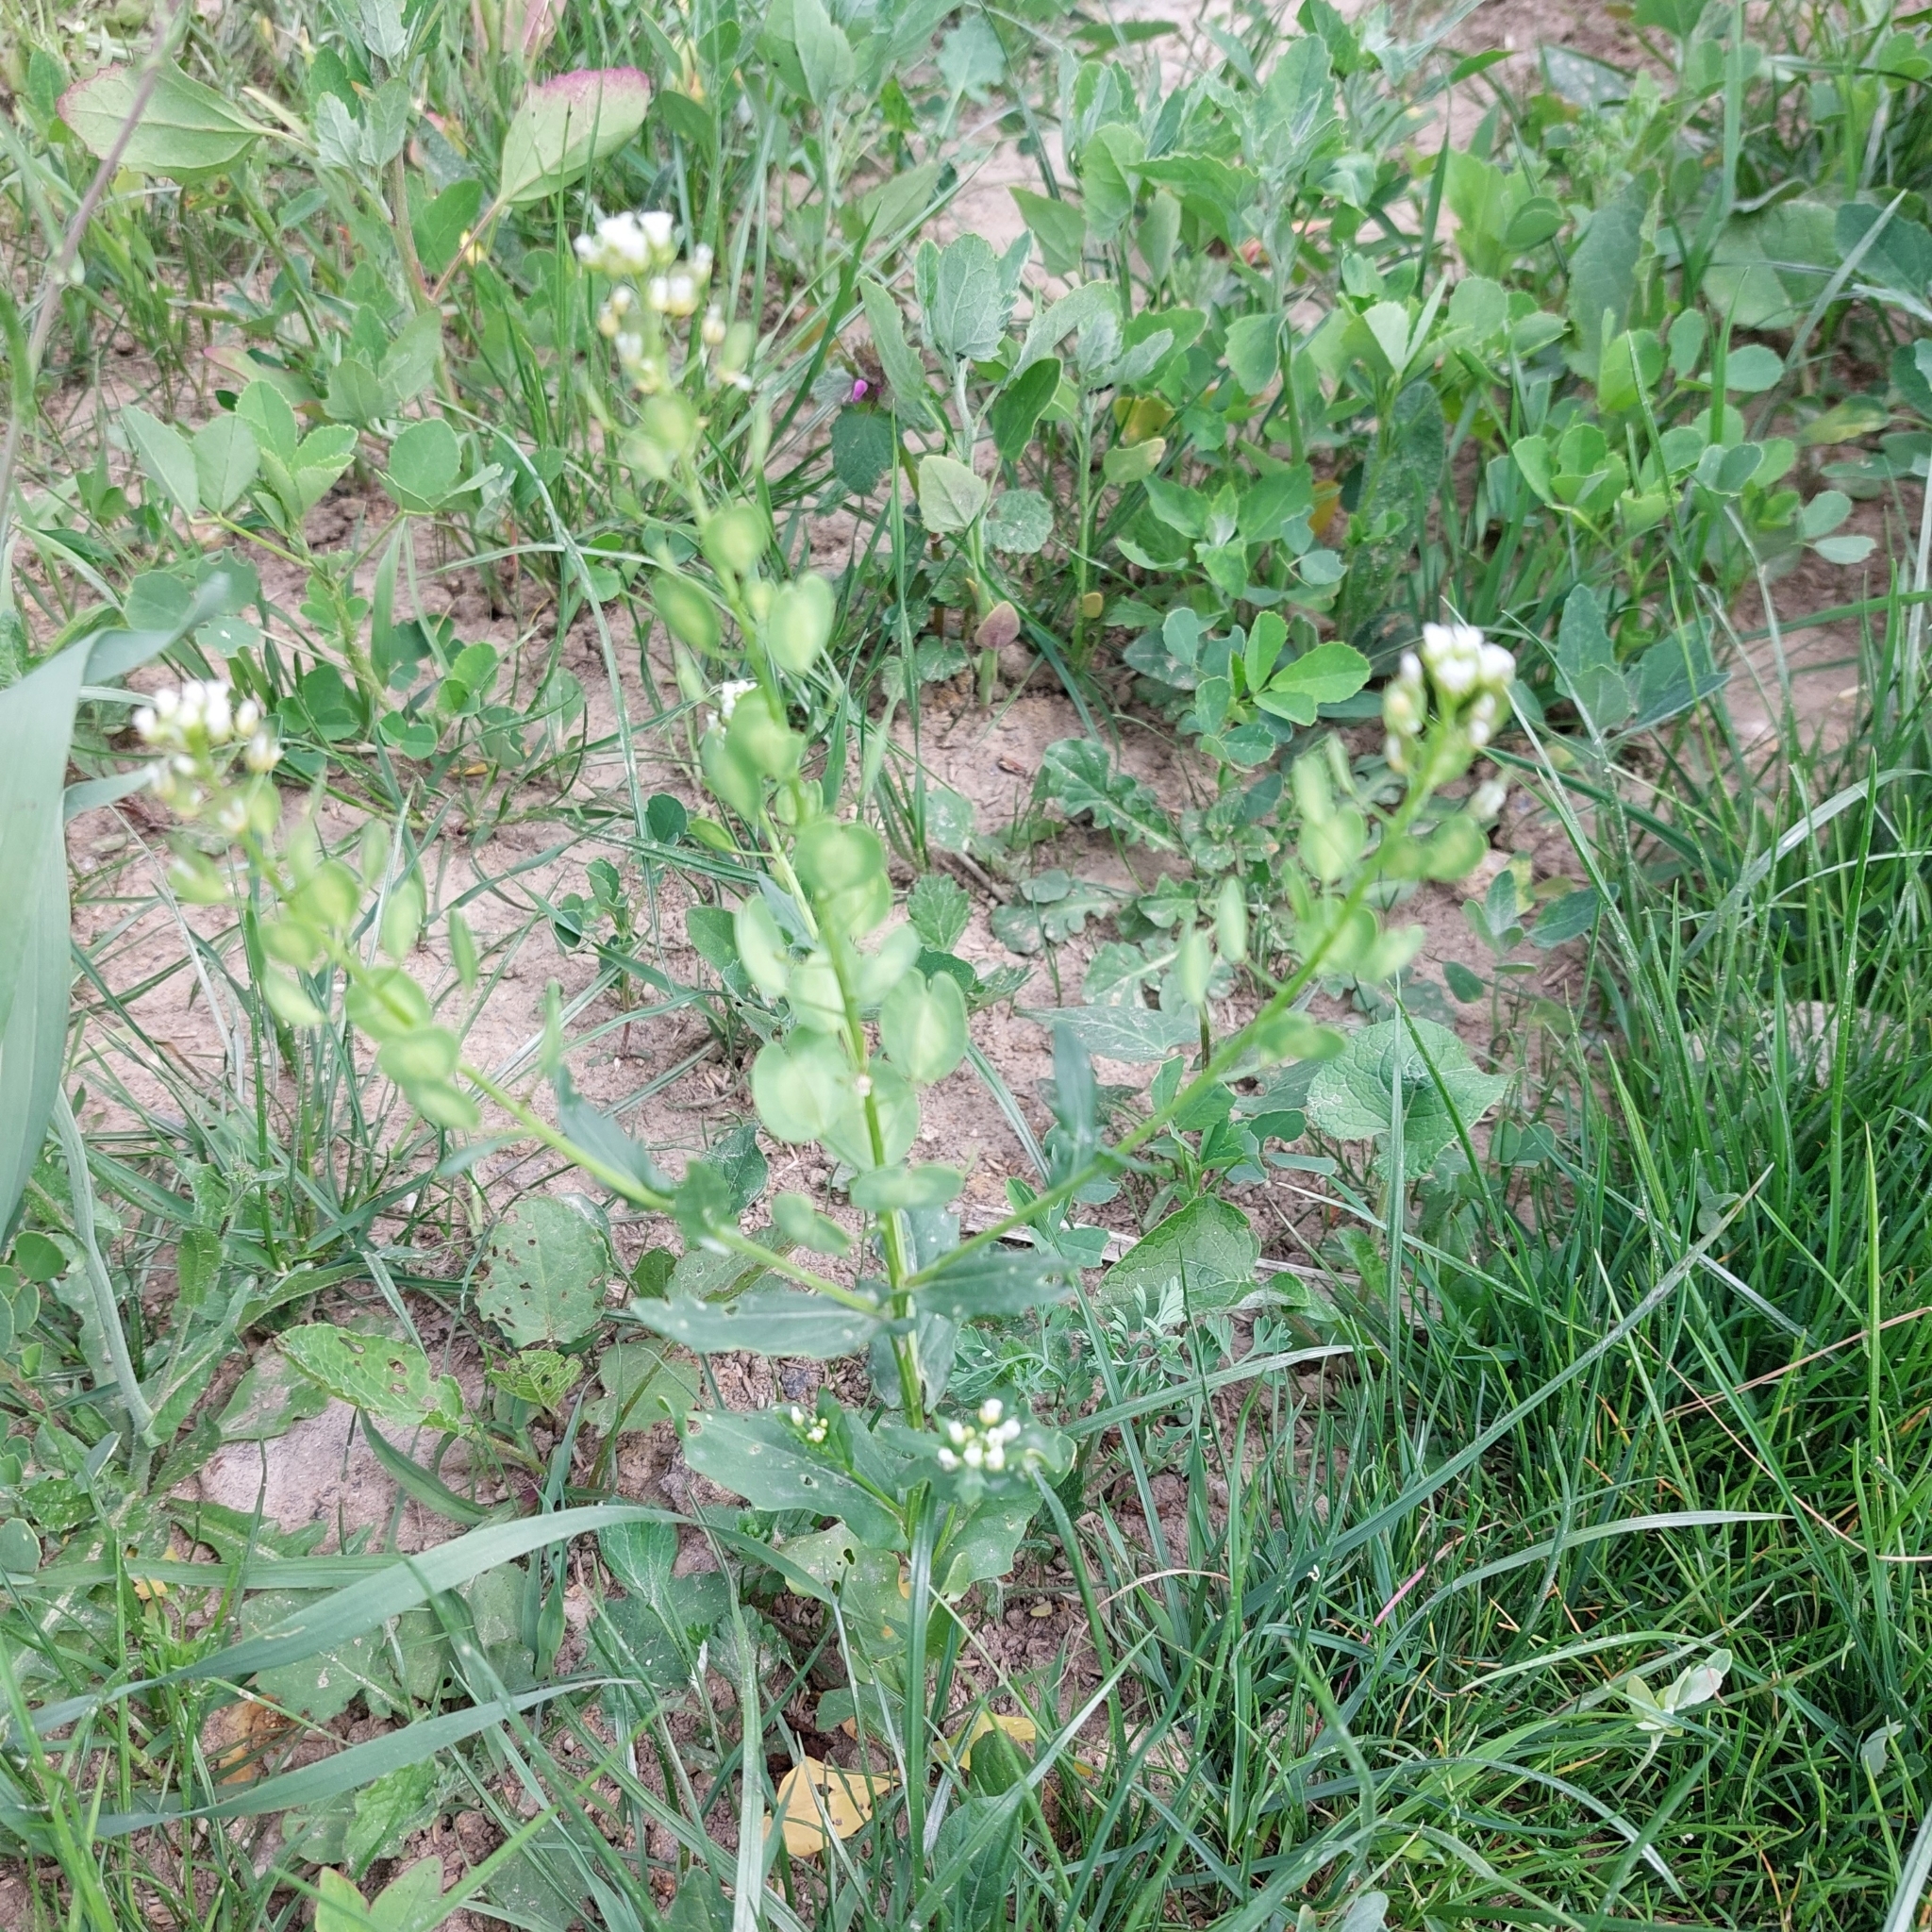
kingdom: Plantae
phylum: Tracheophyta
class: Magnoliopsida
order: Brassicales
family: Brassicaceae
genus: Thlaspi
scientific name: Thlaspi arvense
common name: Field pennycress
